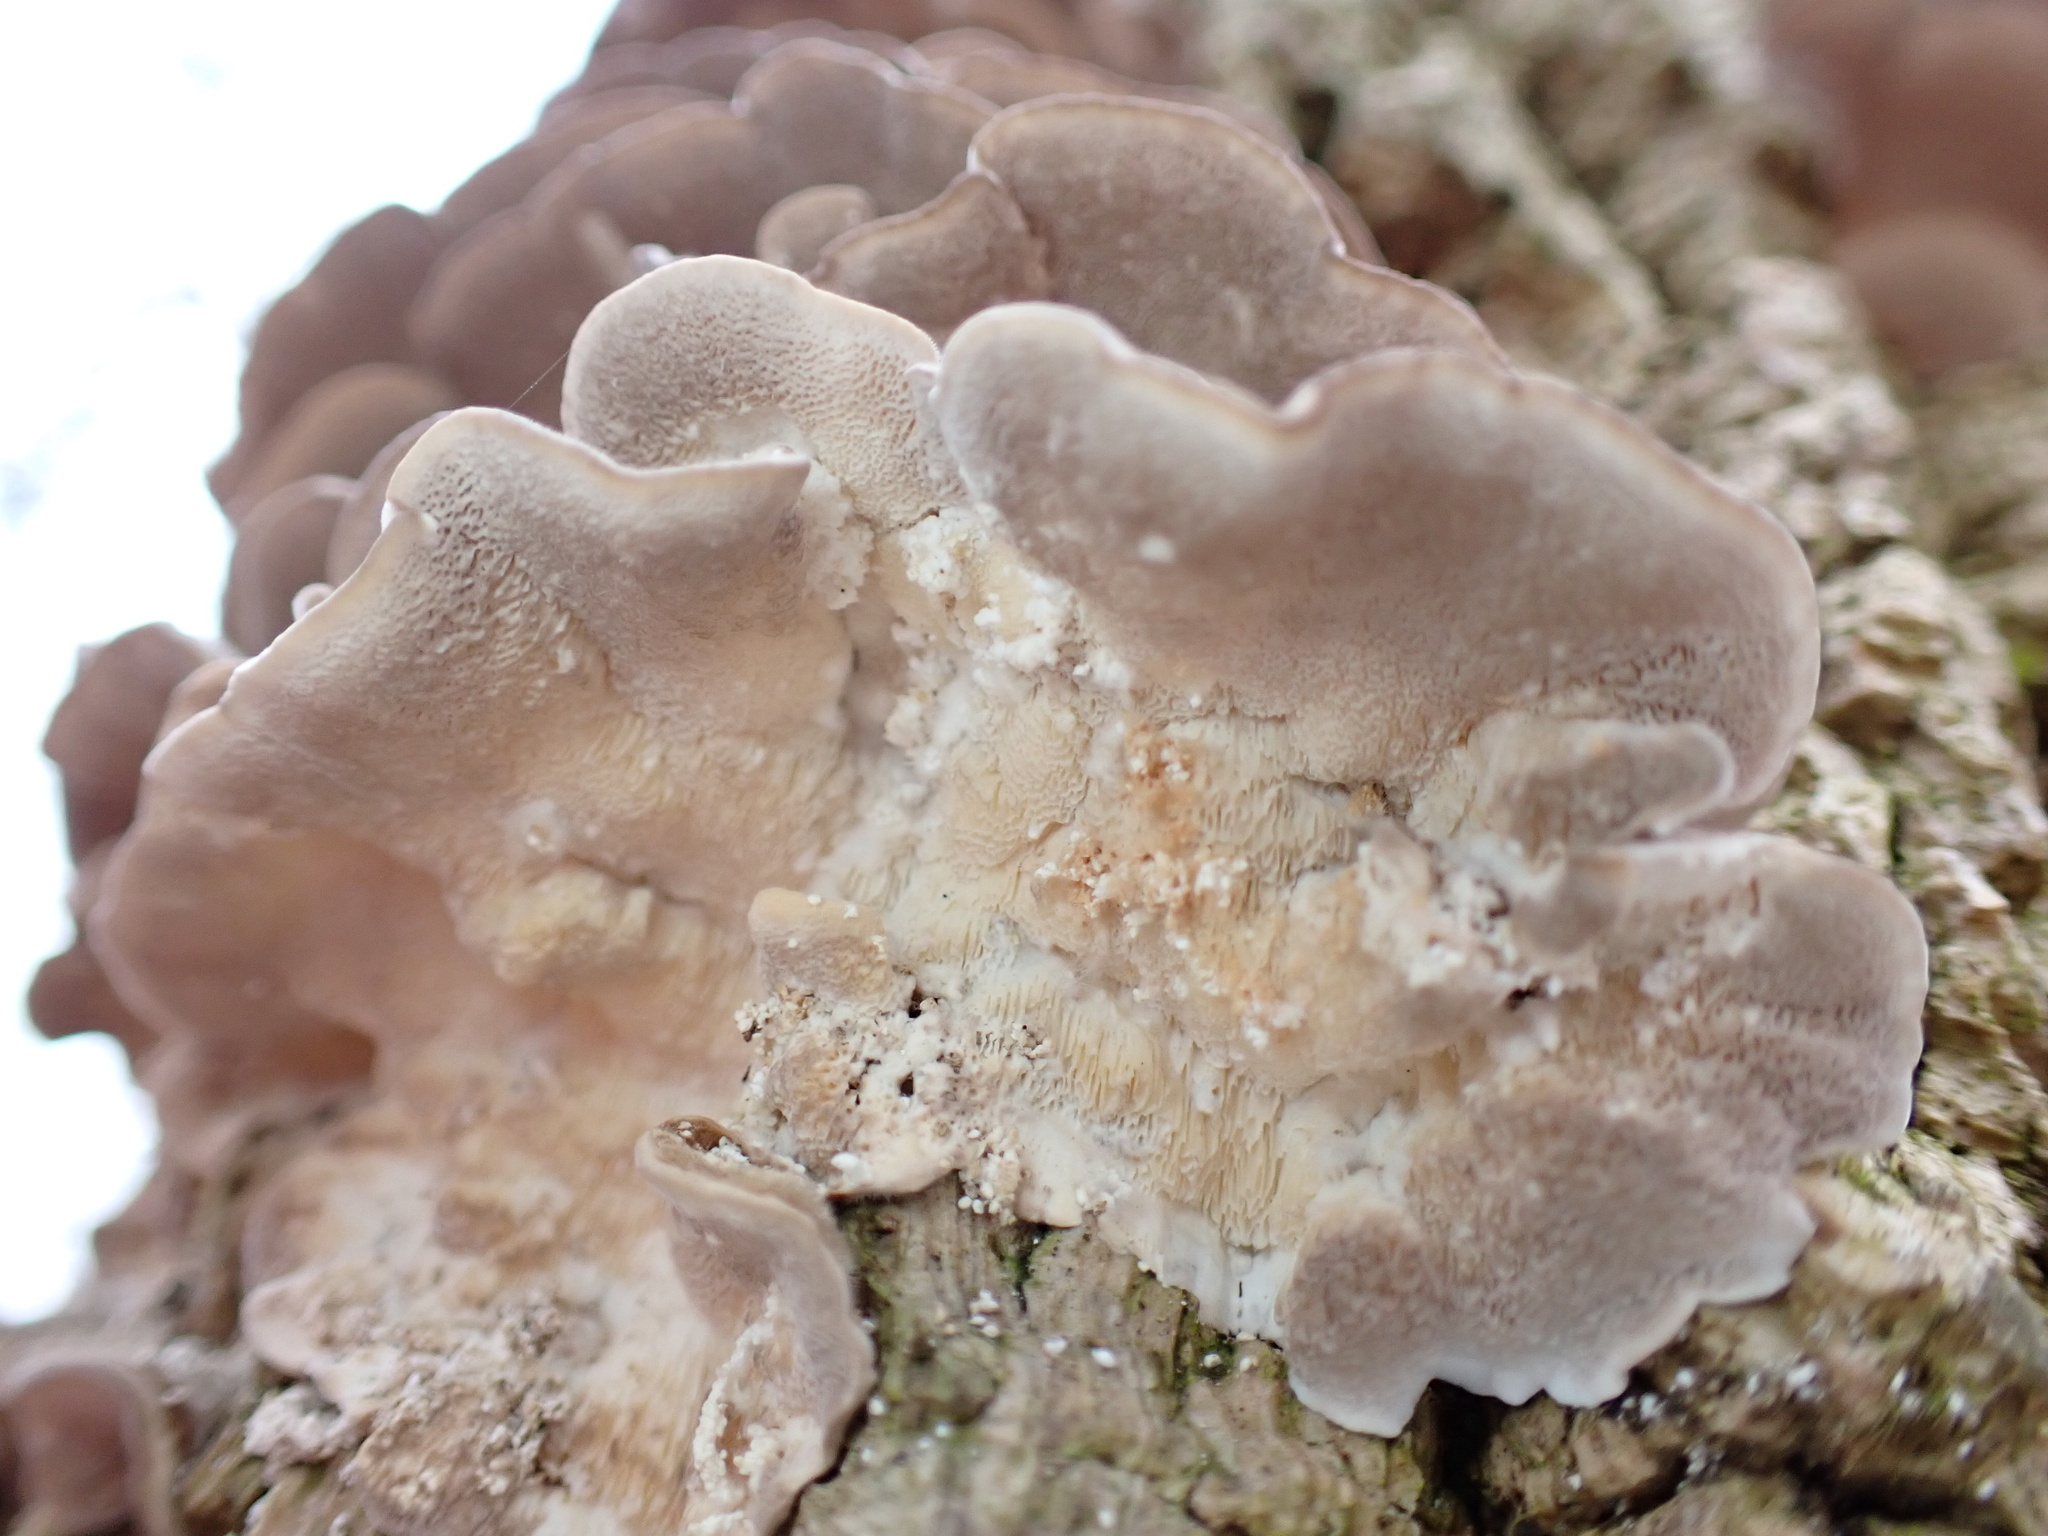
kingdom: Fungi
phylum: Basidiomycota
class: Agaricomycetes
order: Polyporales
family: Polyporaceae
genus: Trametes
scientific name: Trametes versicolor
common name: Turkeytail
